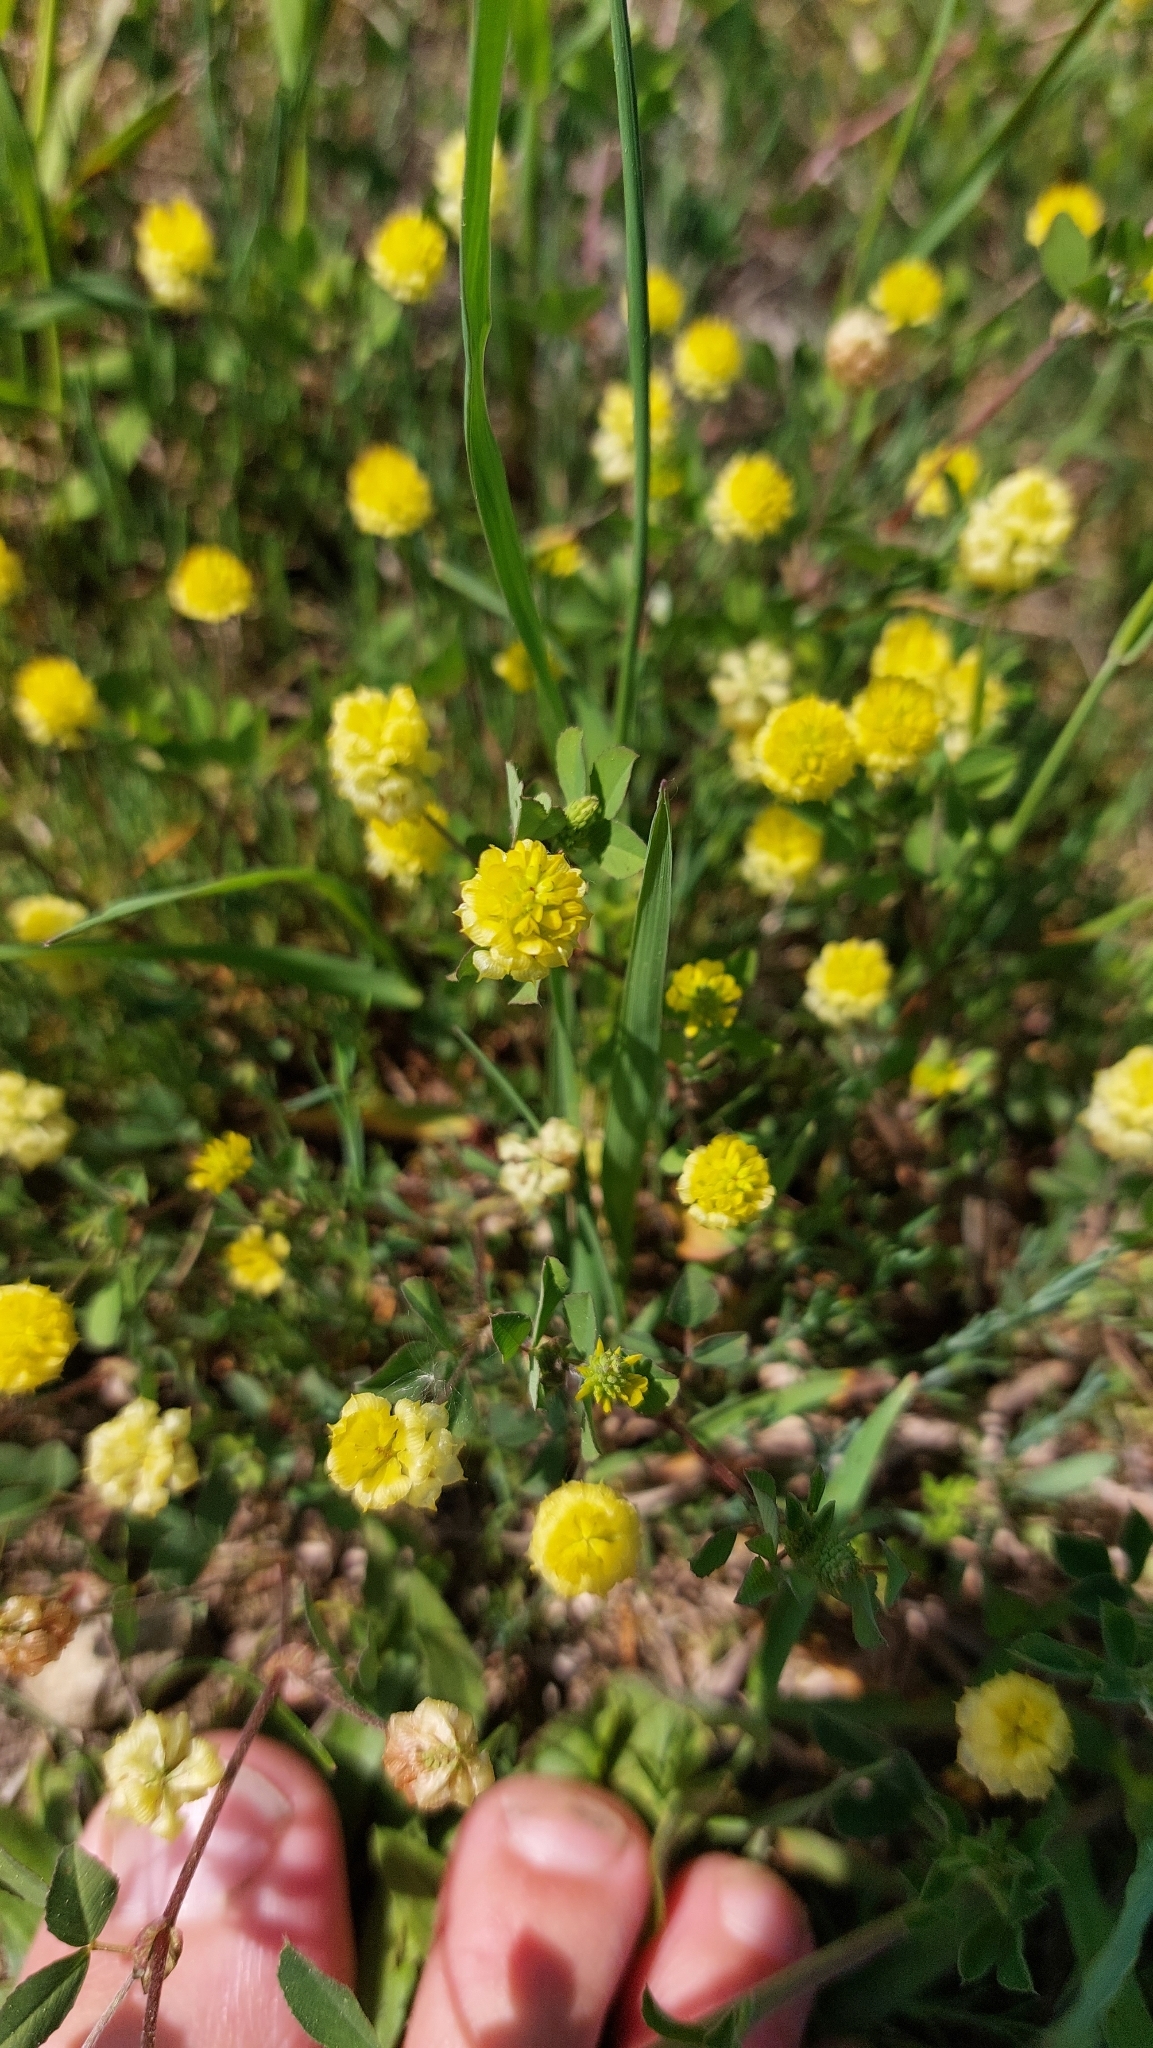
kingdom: Plantae
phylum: Tracheophyta
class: Magnoliopsida
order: Fabales
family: Fabaceae
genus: Trifolium
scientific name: Trifolium campestre
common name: Field clover
